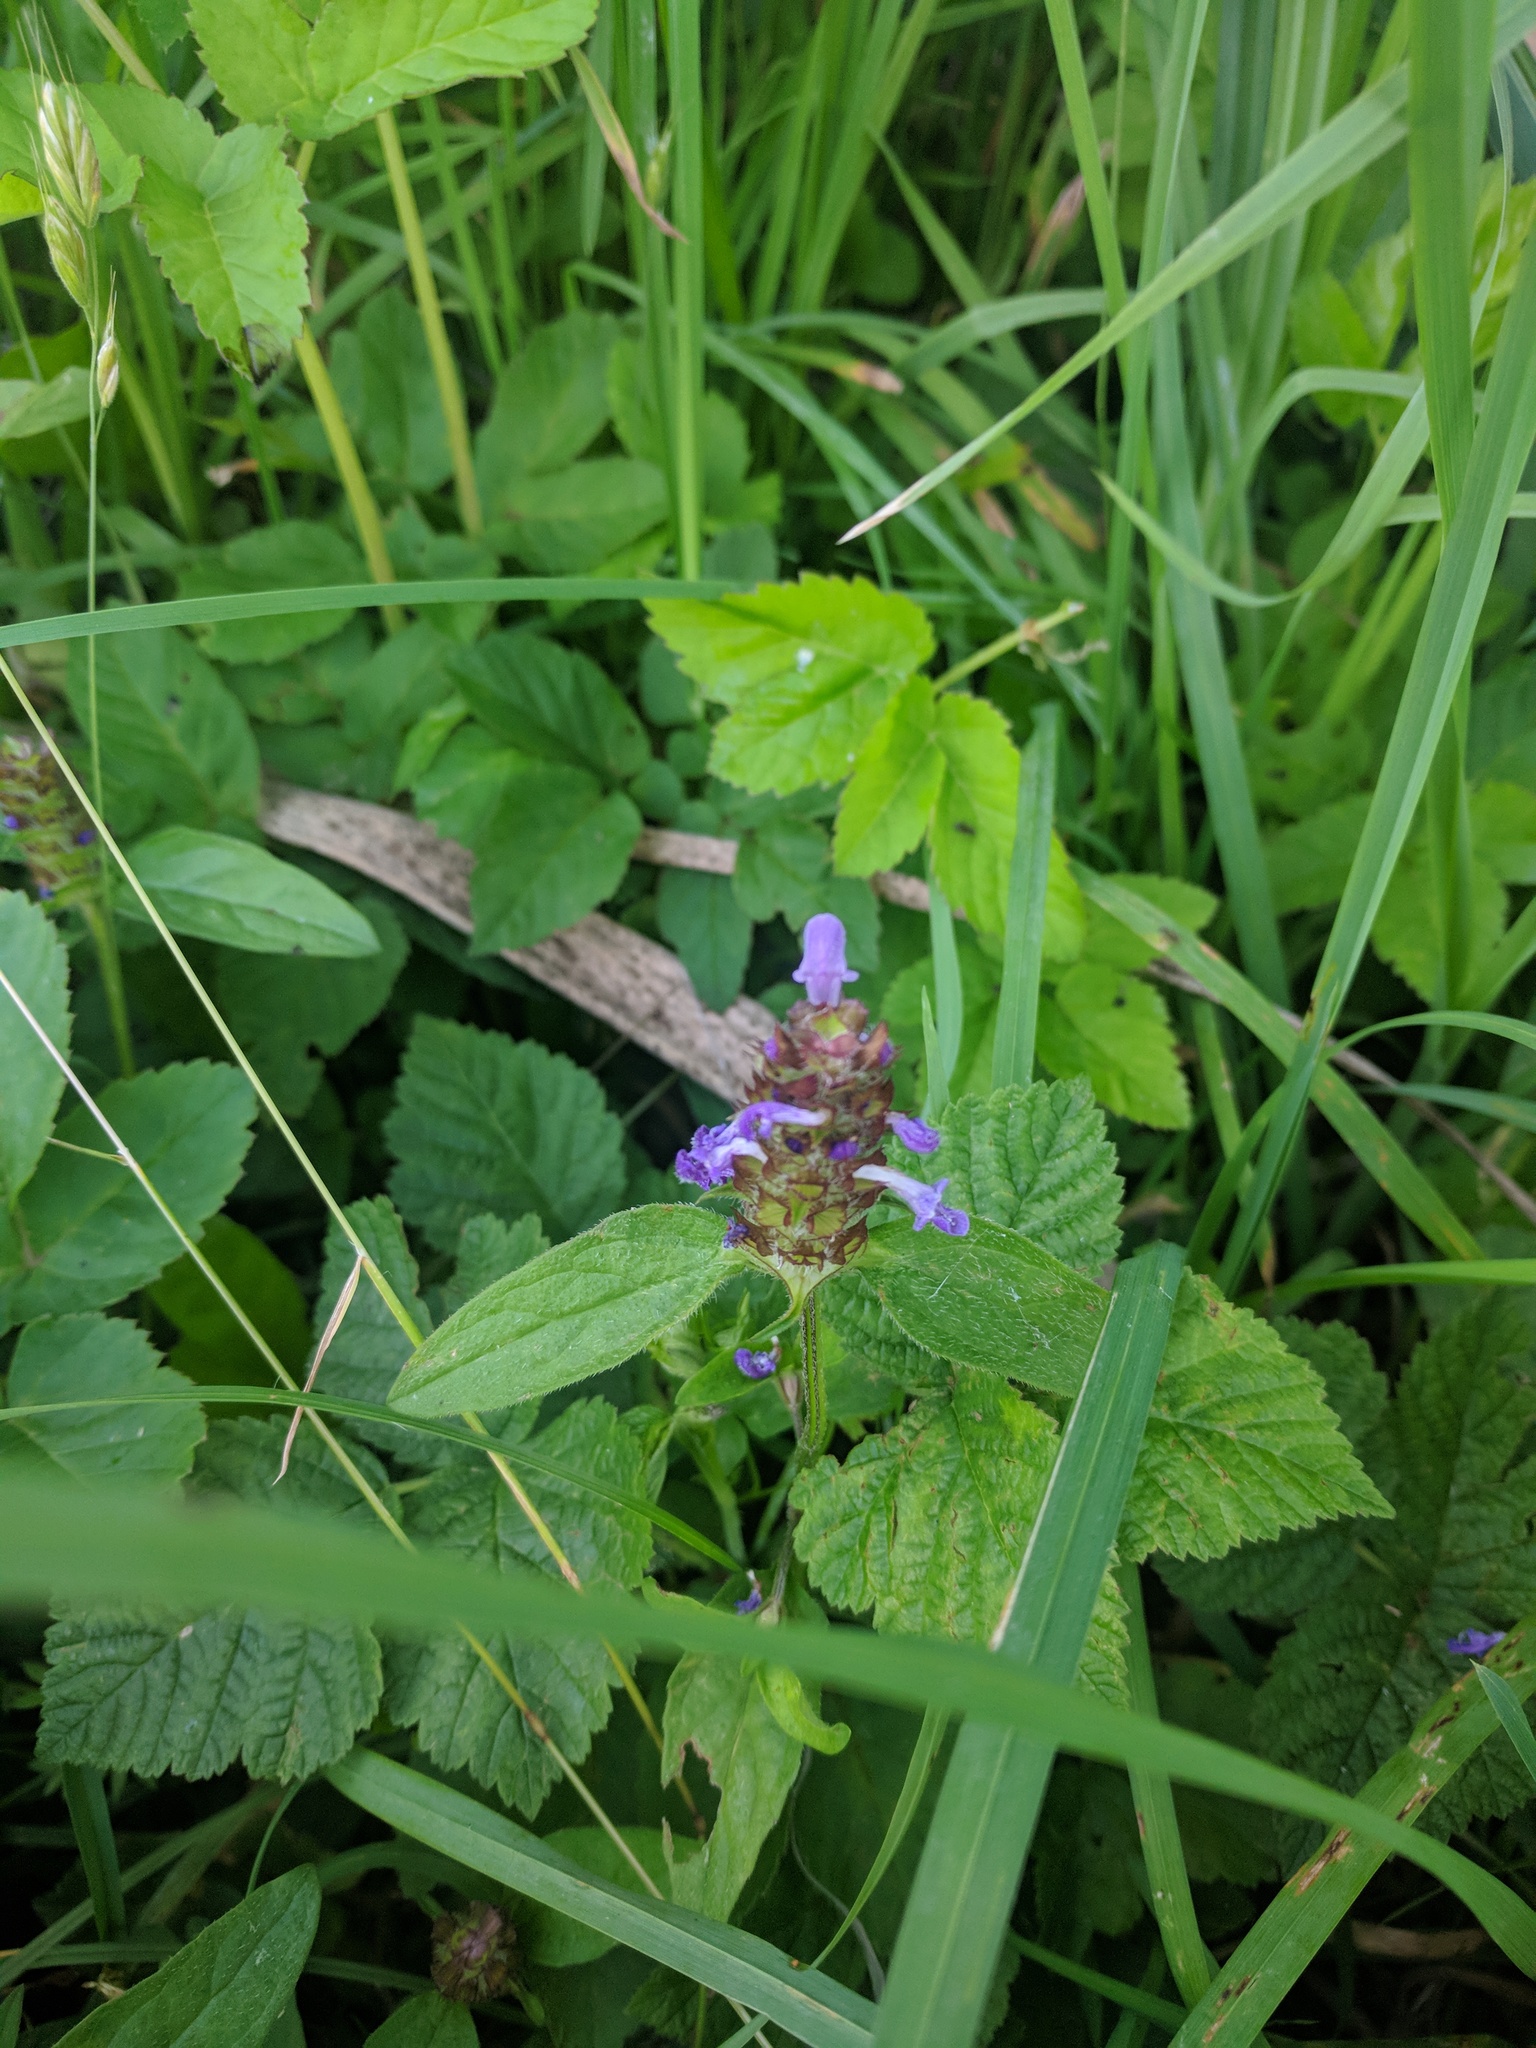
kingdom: Plantae
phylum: Tracheophyta
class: Magnoliopsida
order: Lamiales
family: Lamiaceae
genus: Prunella
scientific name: Prunella vulgaris
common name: Heal-all
